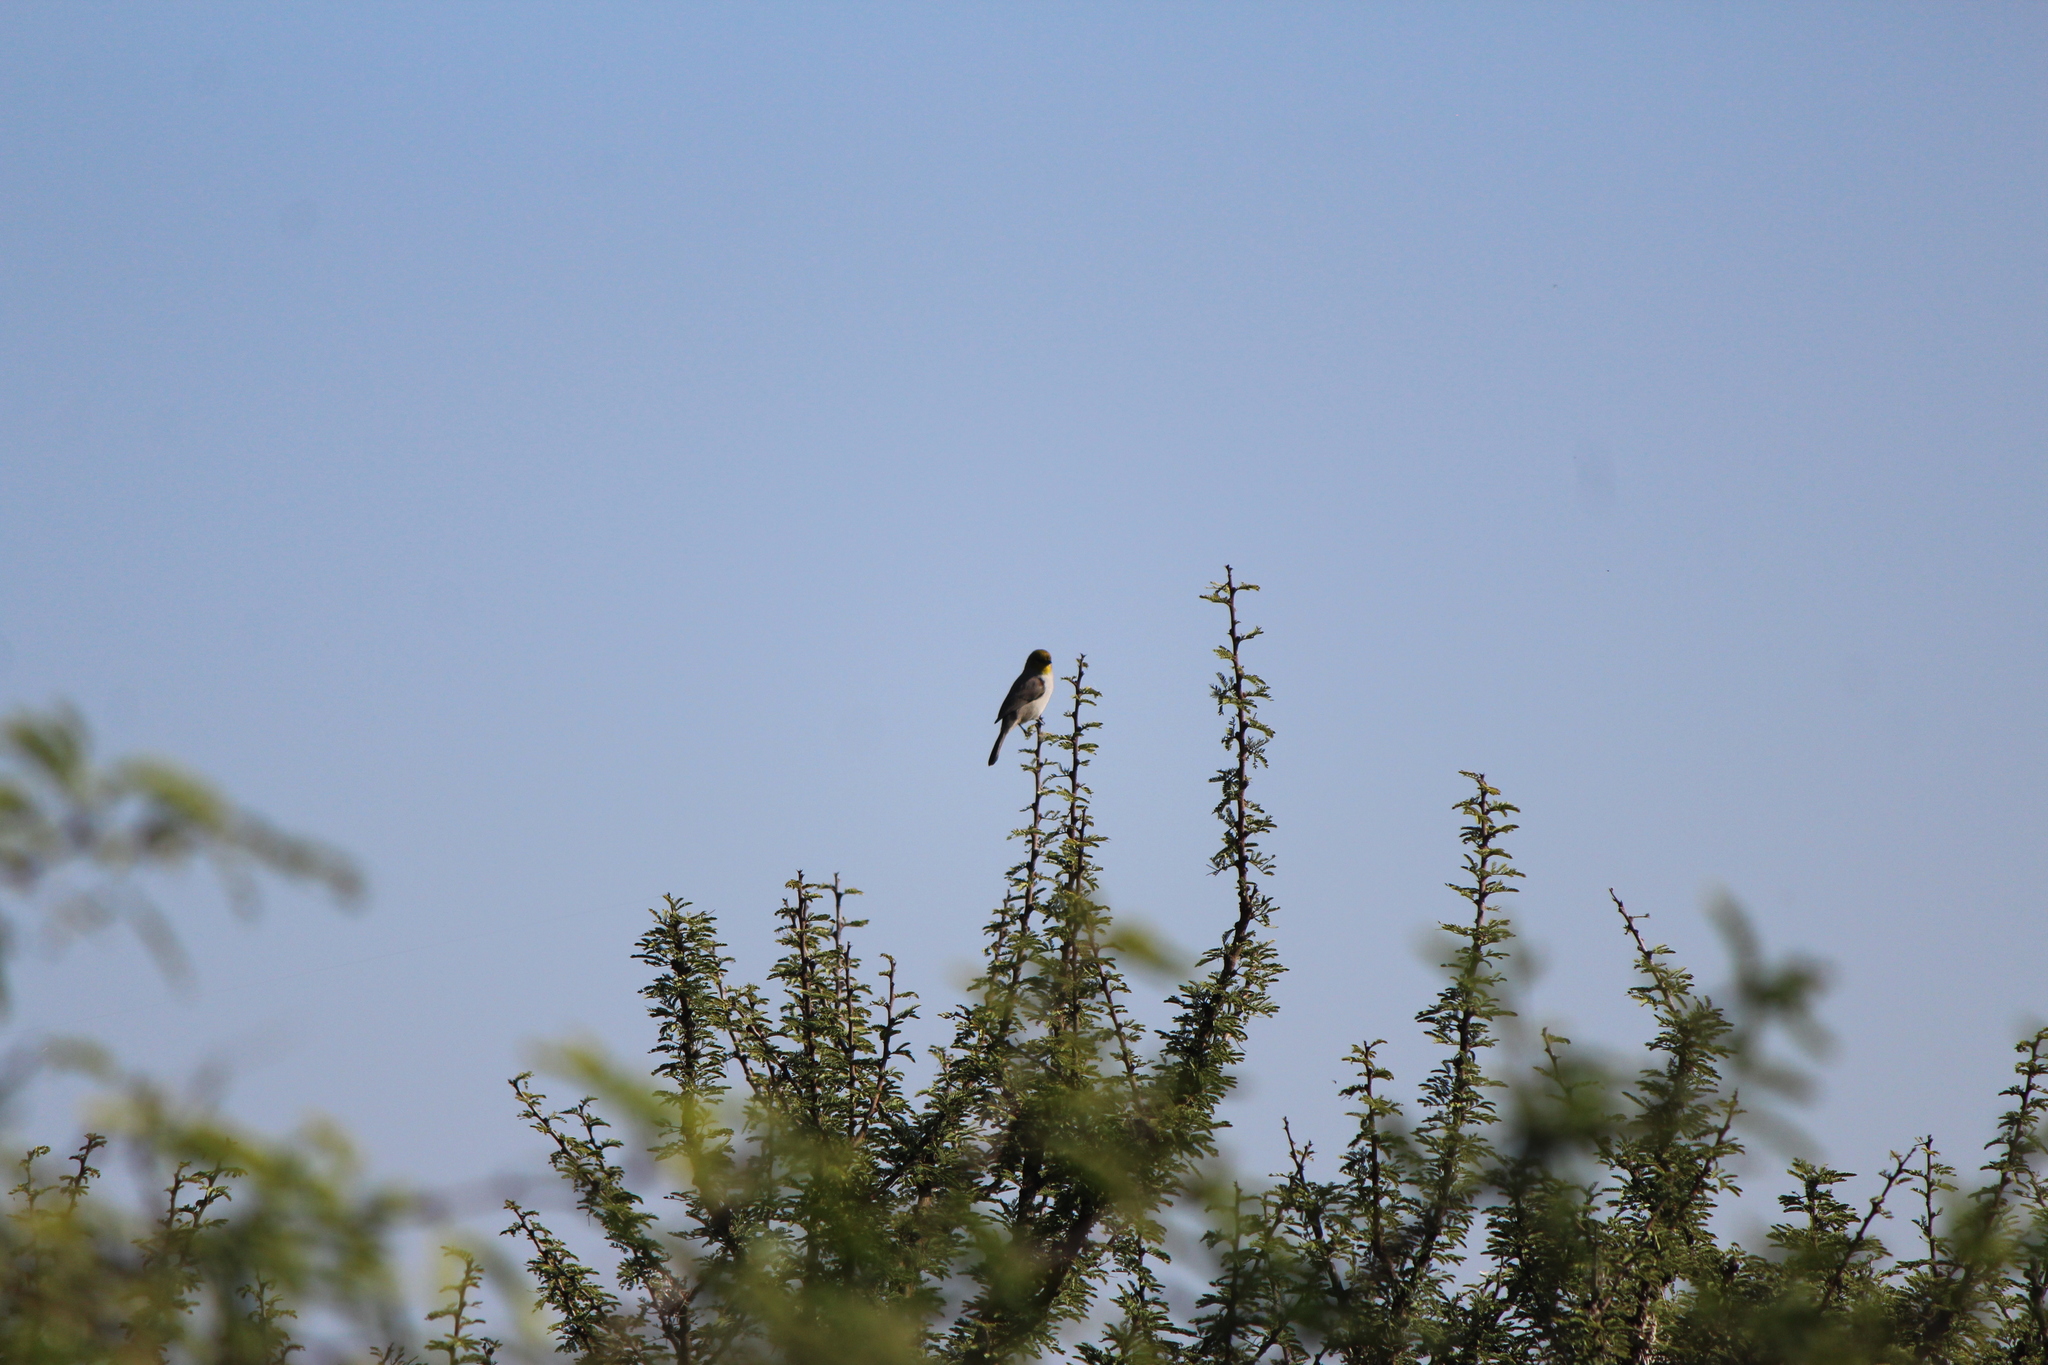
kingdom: Animalia
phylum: Chordata
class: Aves
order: Passeriformes
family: Remizidae
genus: Auriparus
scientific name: Auriparus flaviceps
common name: Verdin
